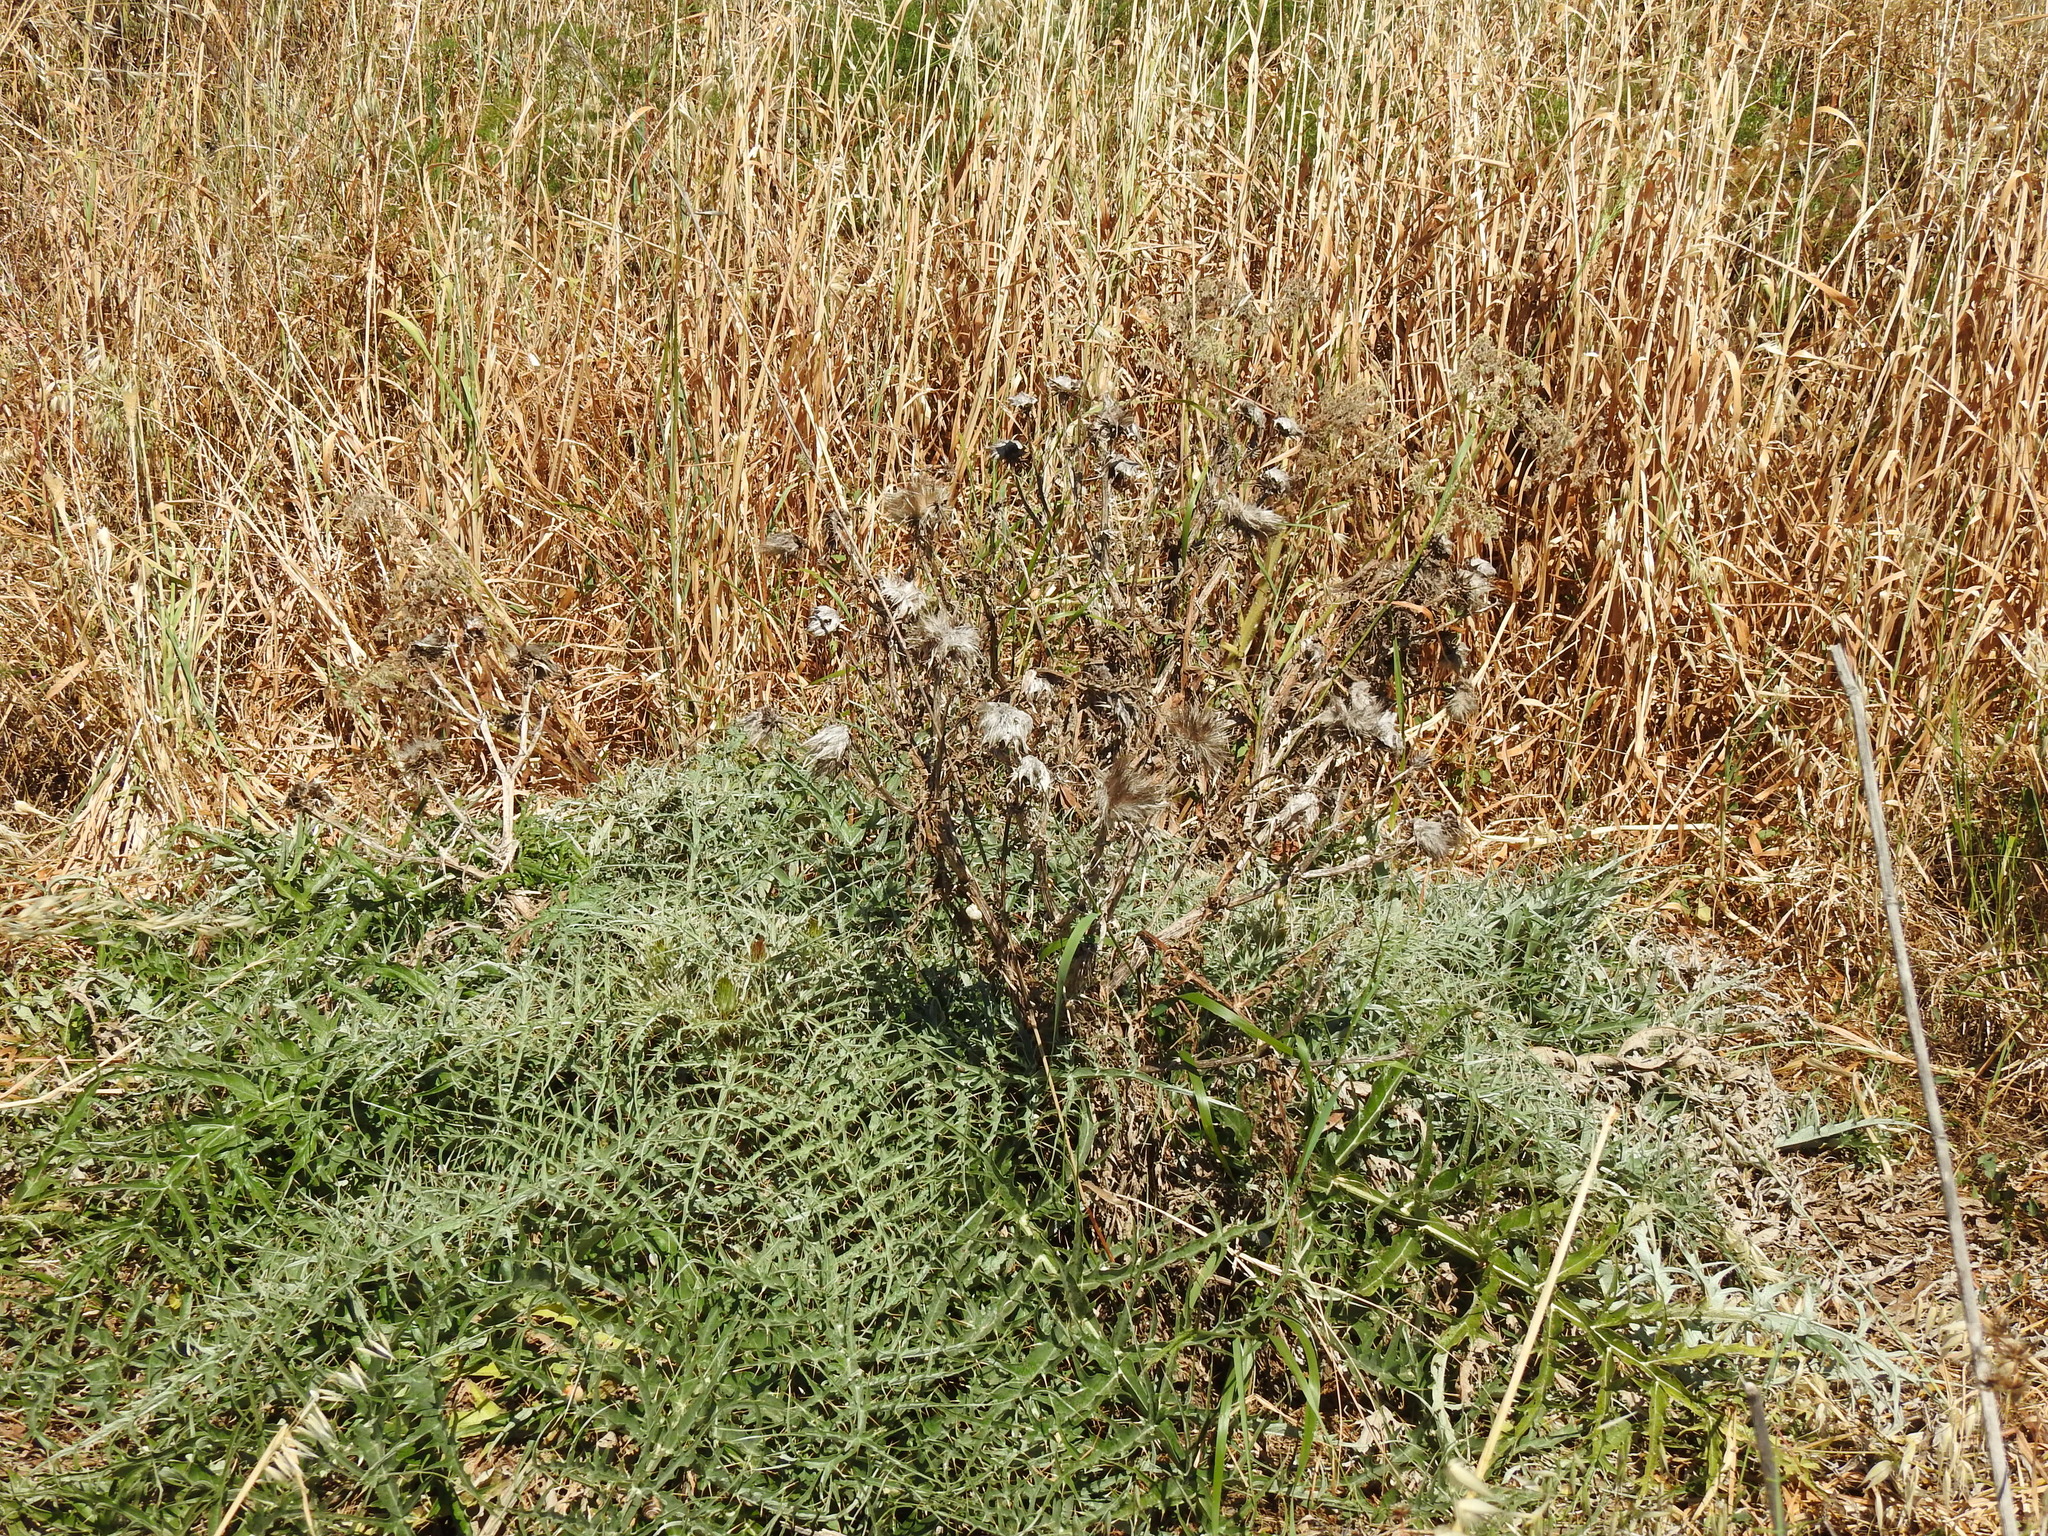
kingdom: Plantae
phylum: Tracheophyta
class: Magnoliopsida
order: Asterales
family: Asteraceae
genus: Cynara
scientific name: Cynara cardunculus
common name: Globe artichoke
